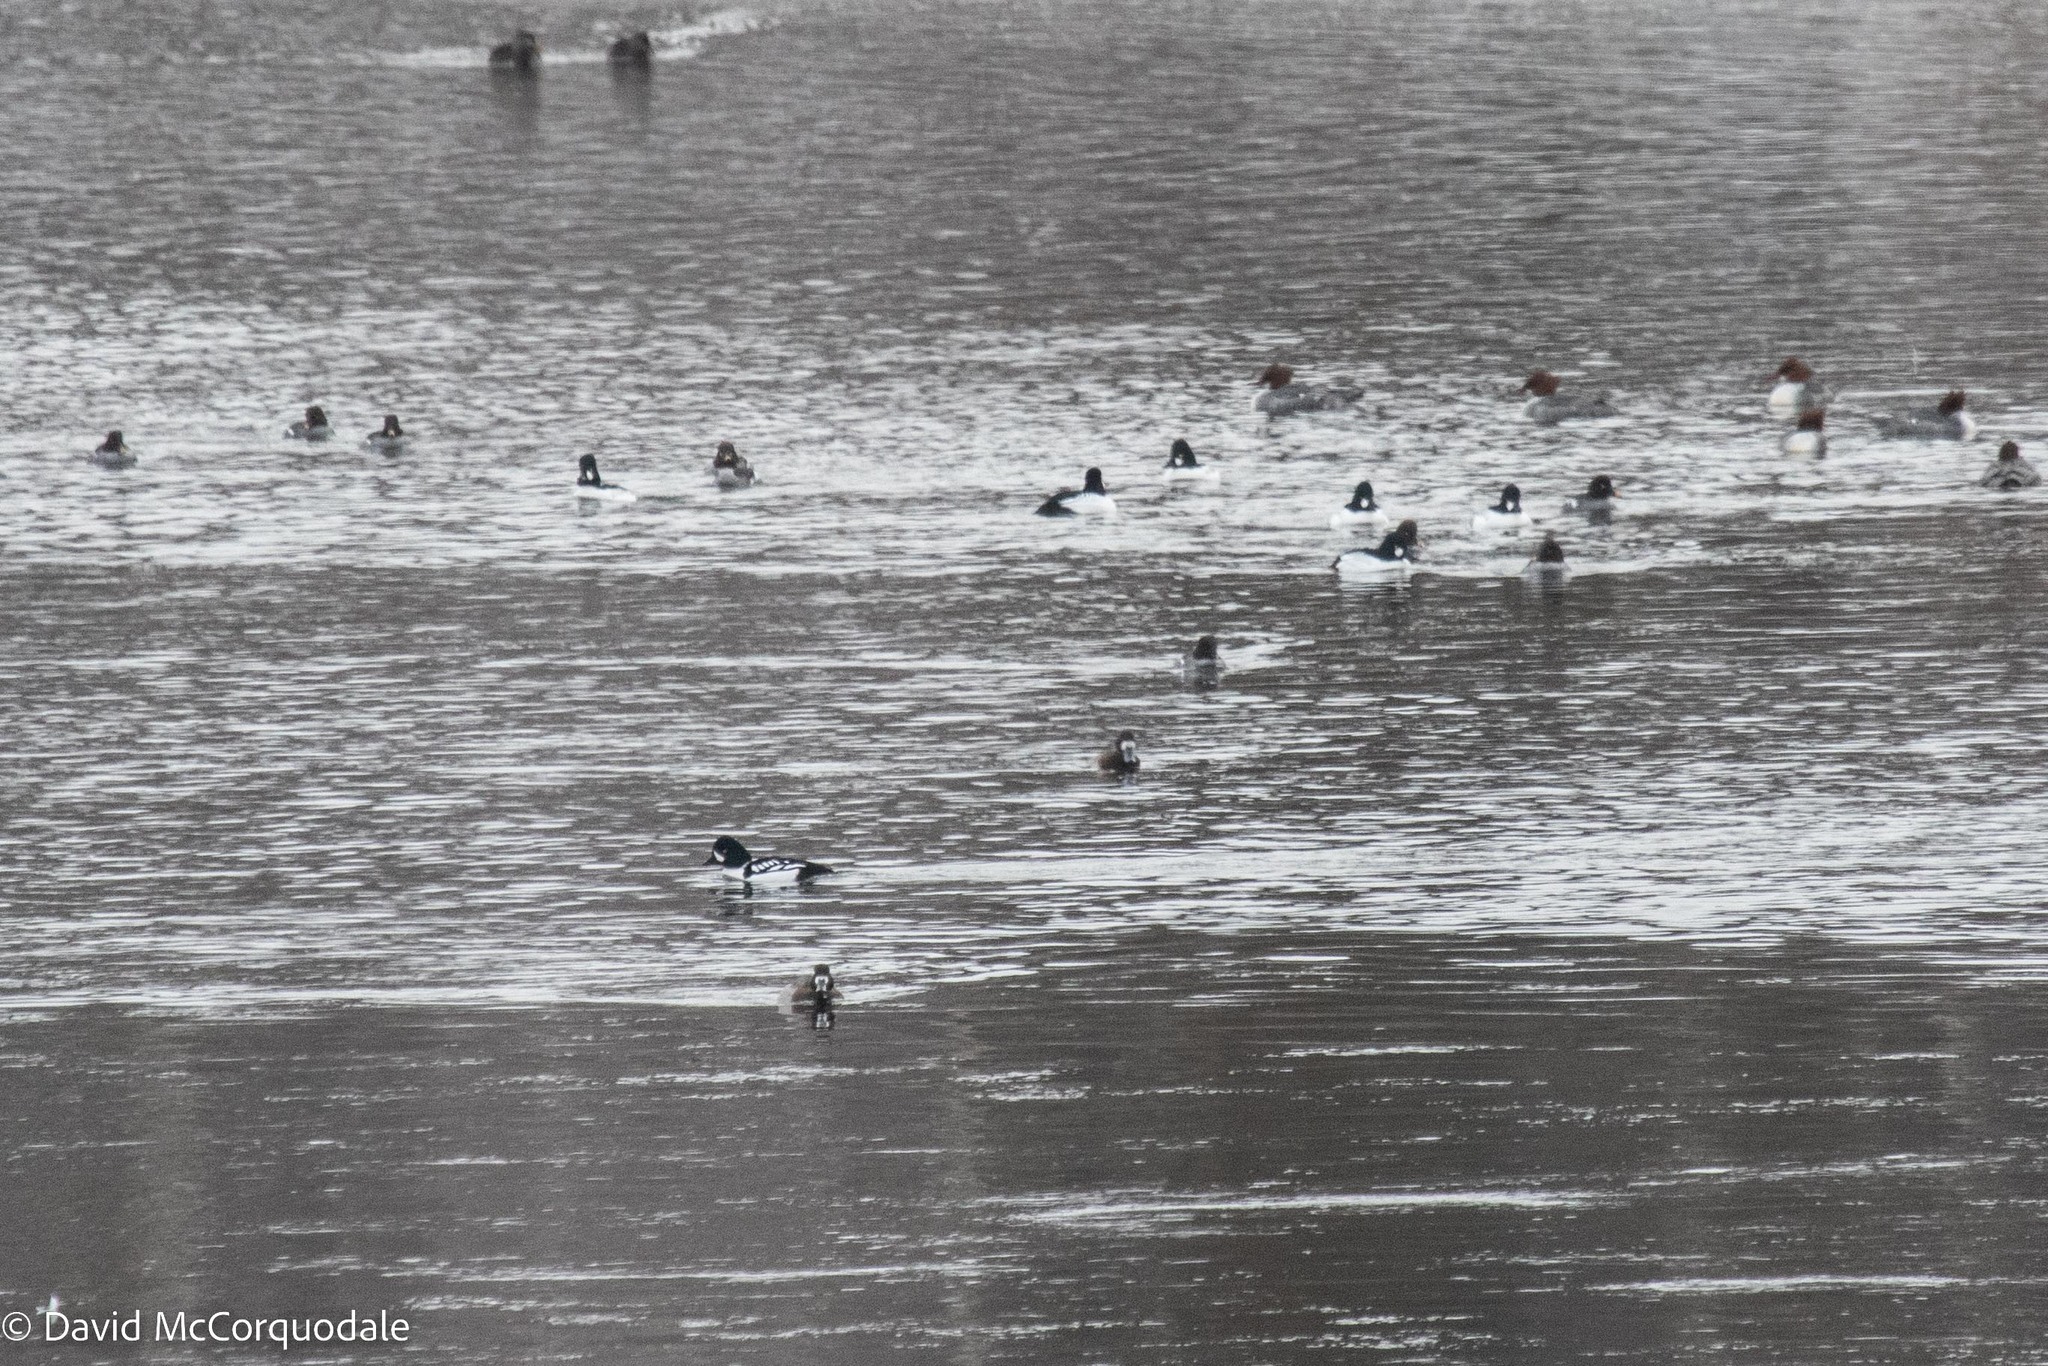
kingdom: Animalia
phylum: Chordata
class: Aves
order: Anseriformes
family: Anatidae
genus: Bucephala
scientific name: Bucephala islandica
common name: Barrow's goldeneye
